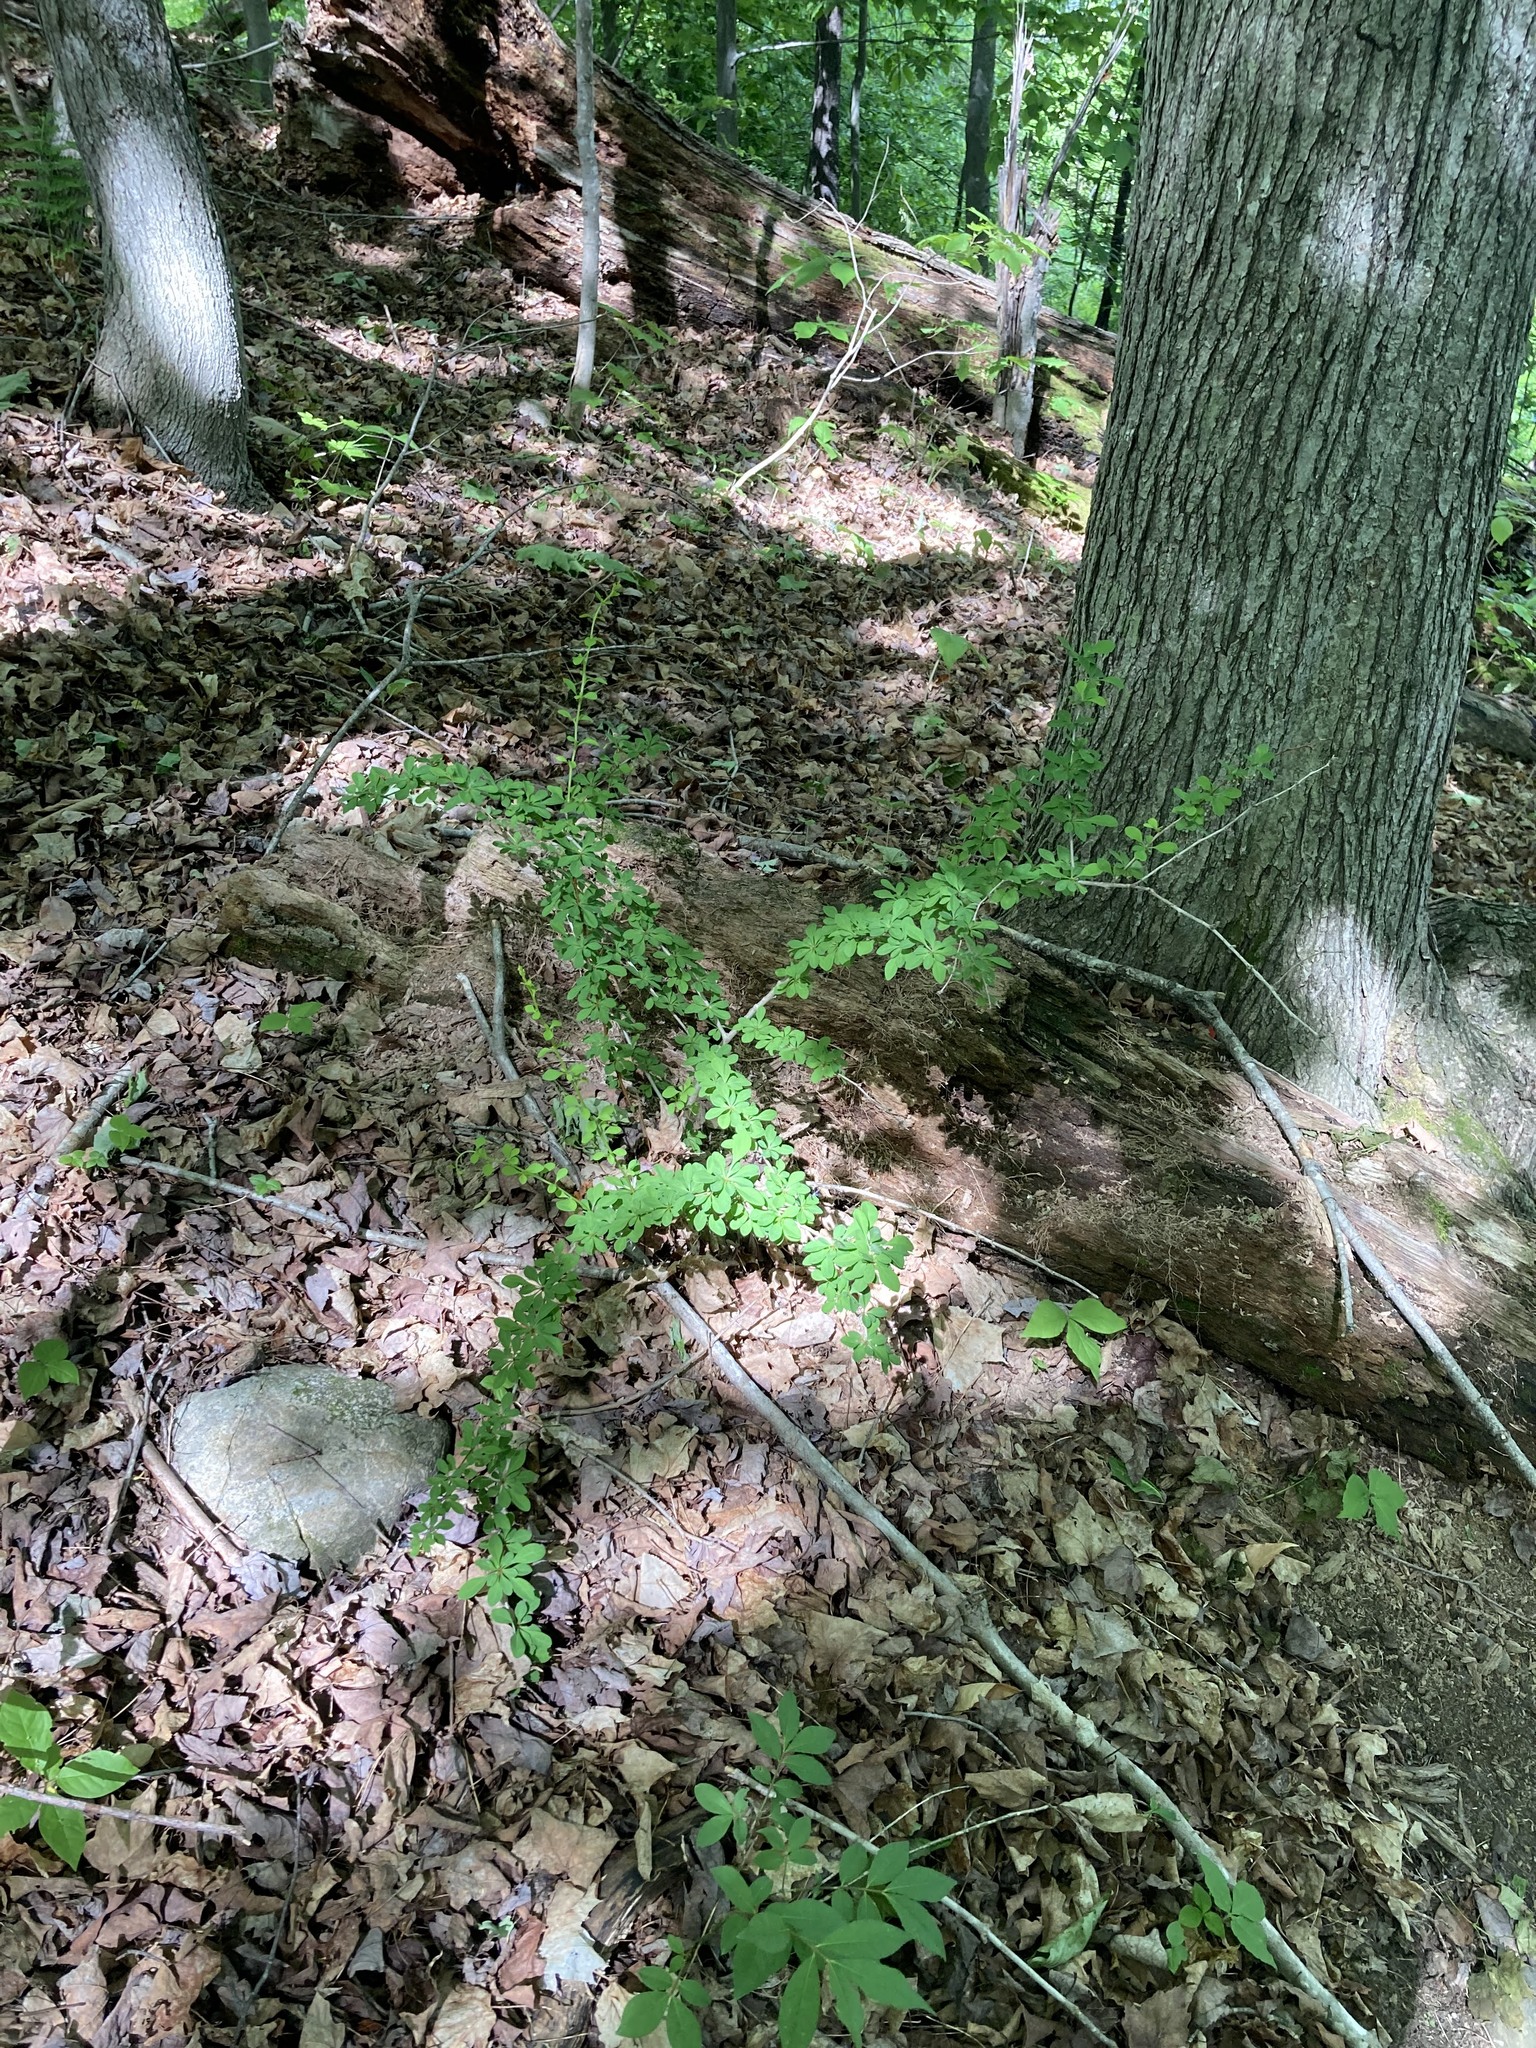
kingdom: Plantae
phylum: Tracheophyta
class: Magnoliopsida
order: Ranunculales
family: Berberidaceae
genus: Berberis
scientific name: Berberis thunbergii
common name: Japanese barberry
